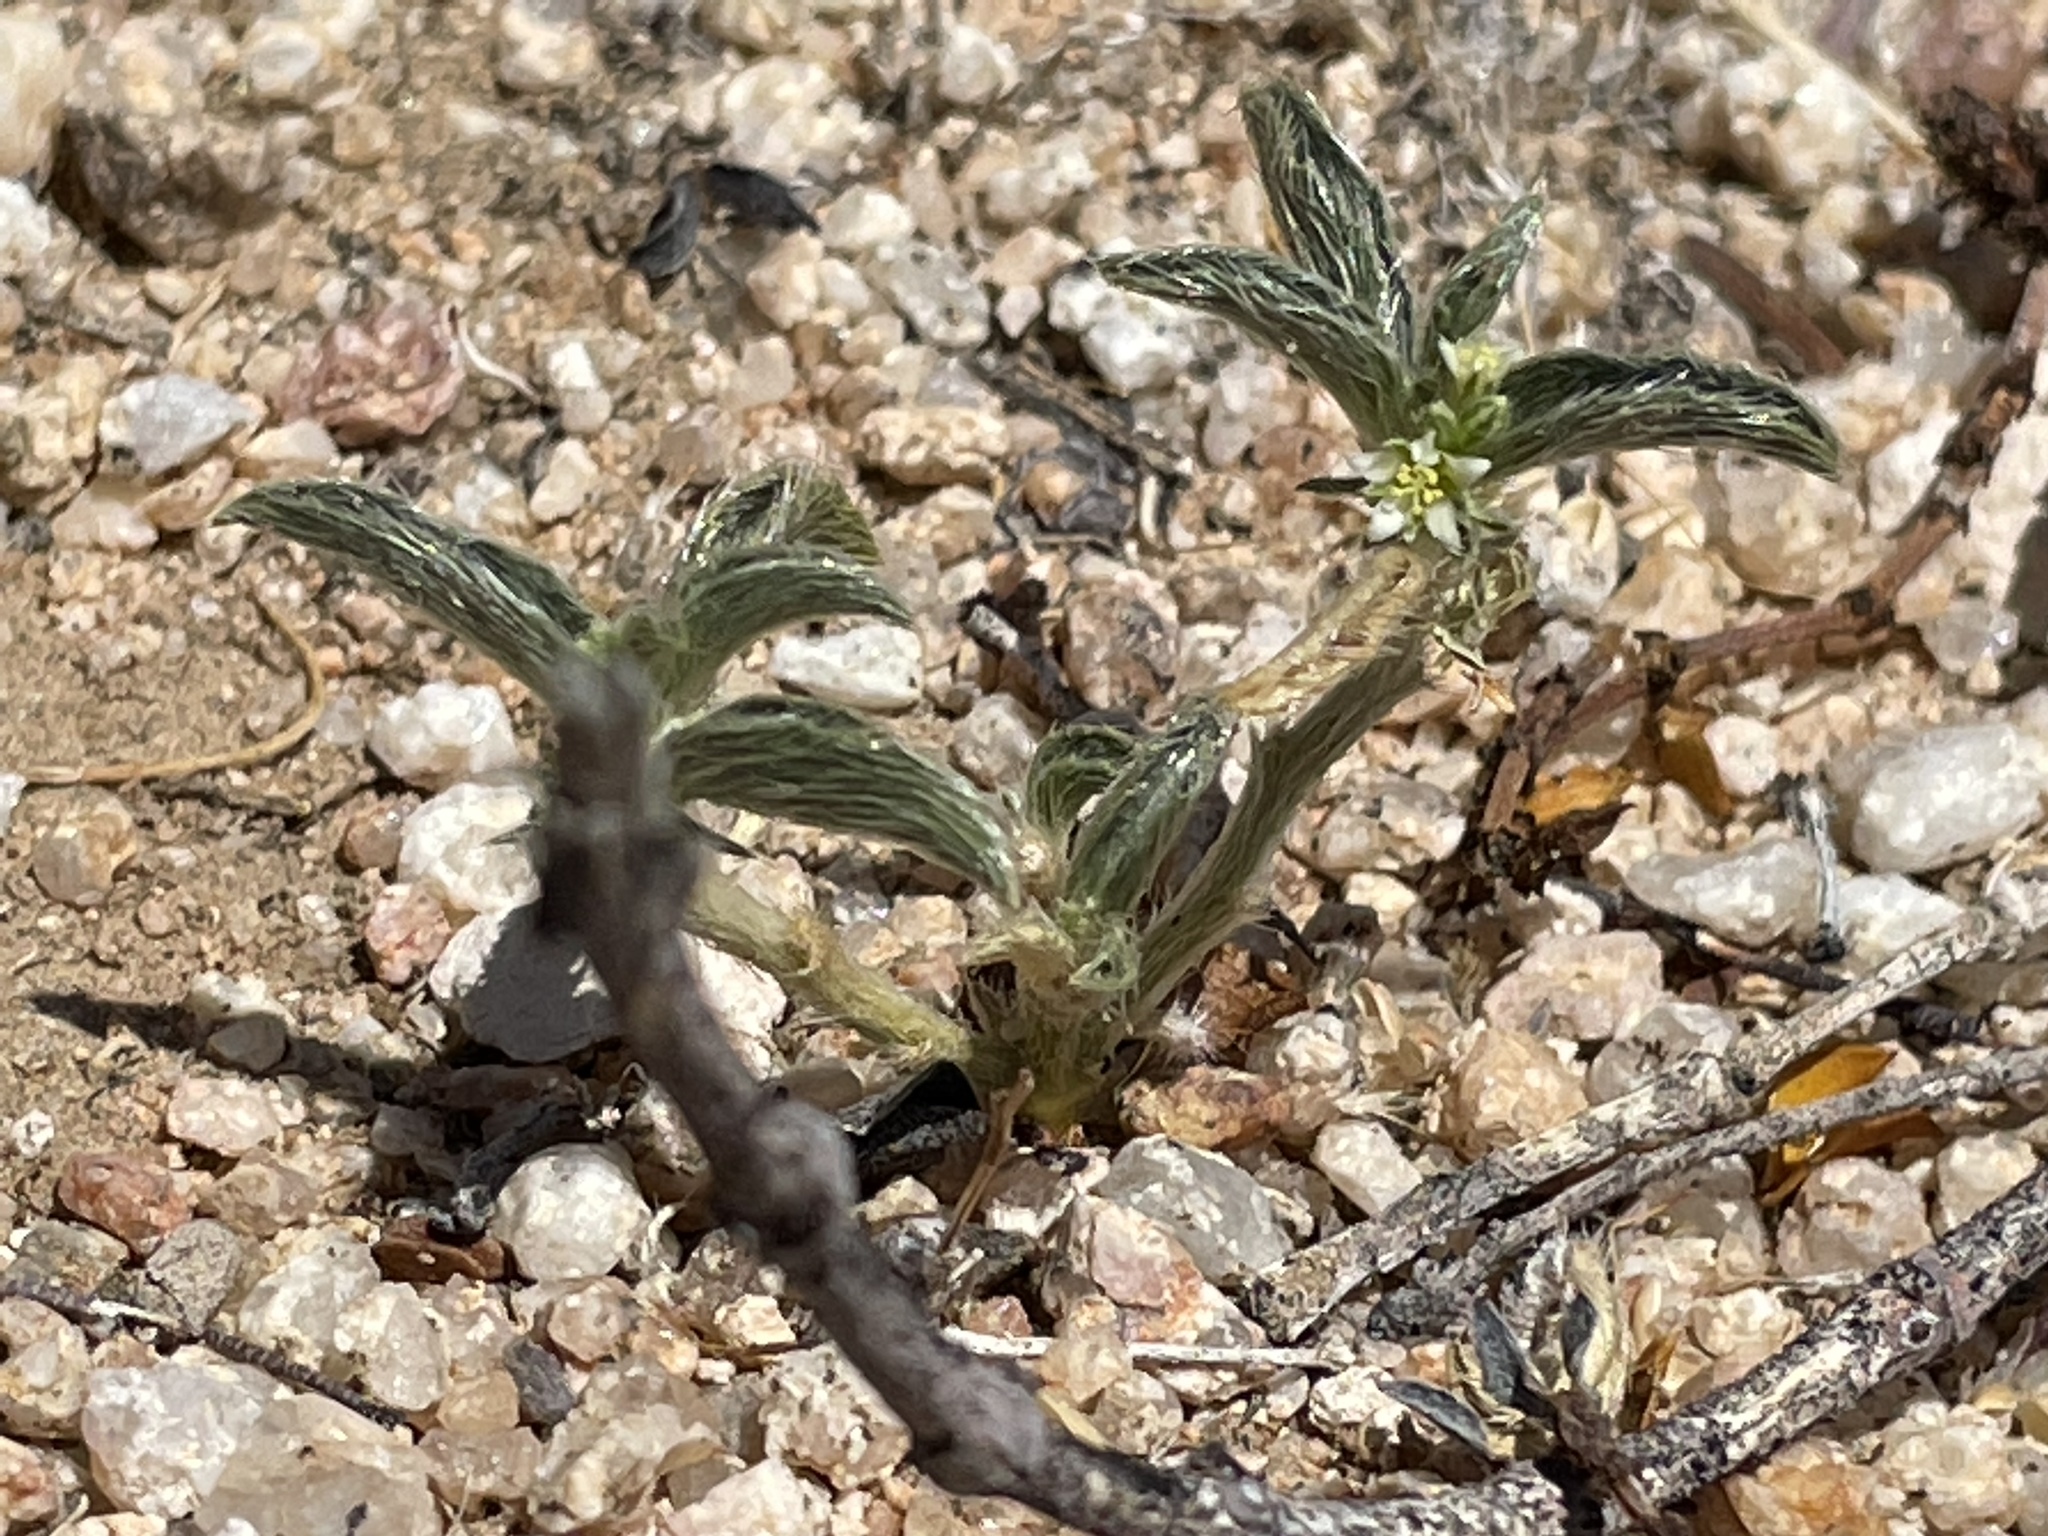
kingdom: Plantae
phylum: Tracheophyta
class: Magnoliopsida
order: Malpighiales
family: Euphorbiaceae
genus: Ditaxis
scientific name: Ditaxis serrata
